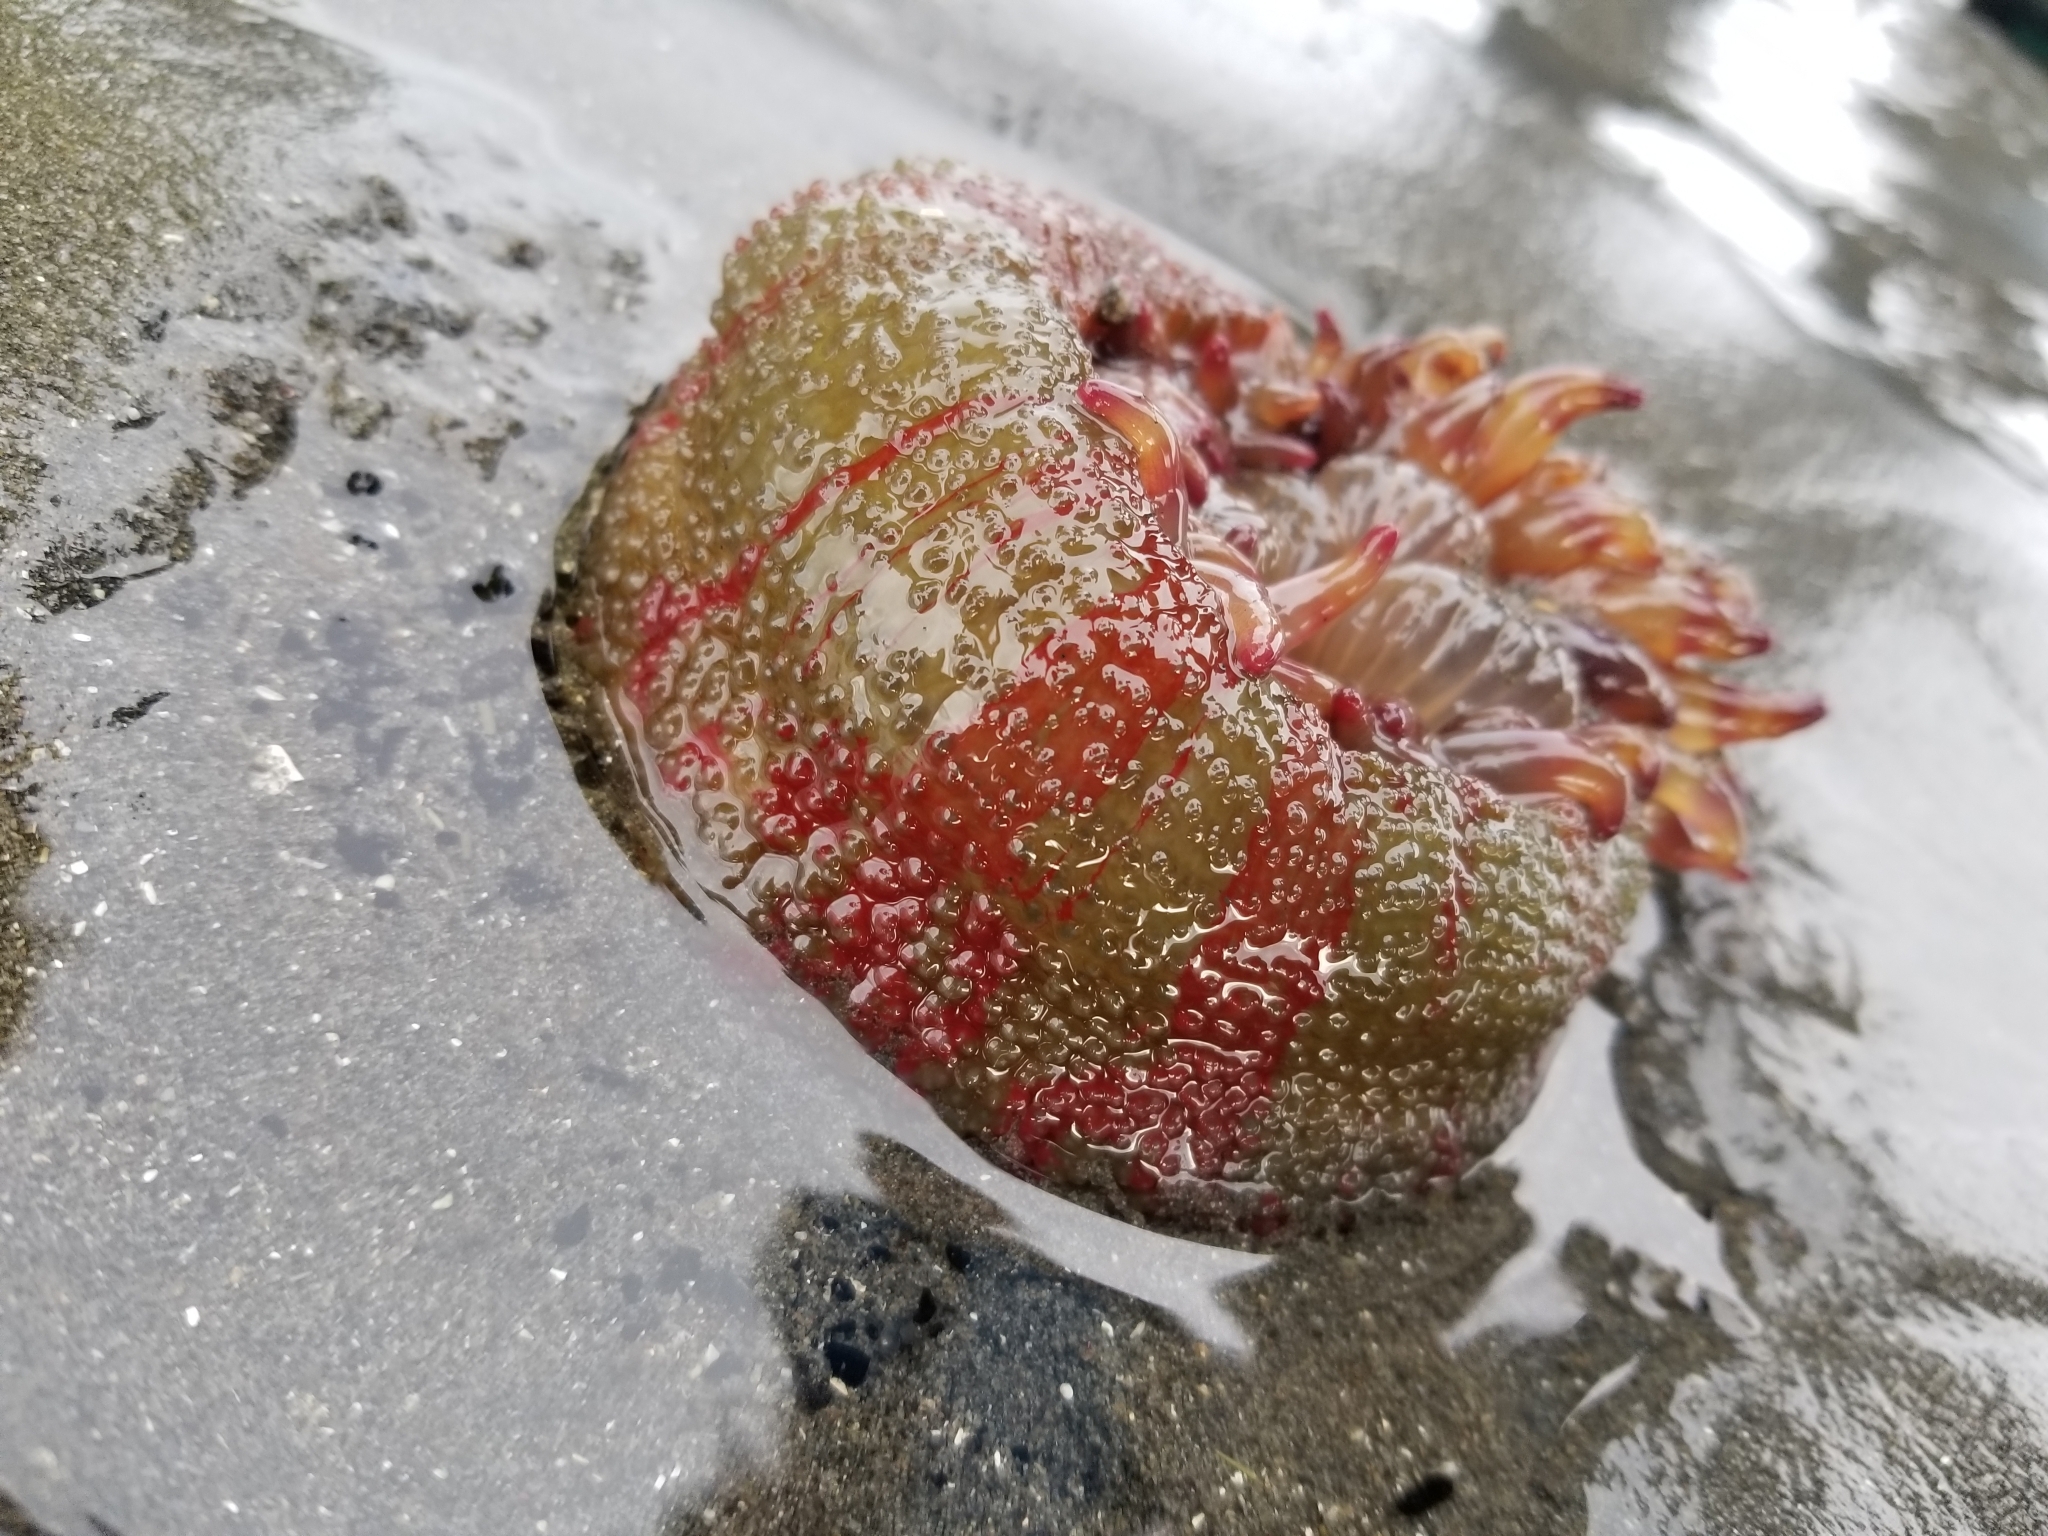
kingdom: Animalia
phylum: Cnidaria
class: Anthozoa
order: Actiniaria
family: Actiniidae
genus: Urticina
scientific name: Urticina grebelnyi
